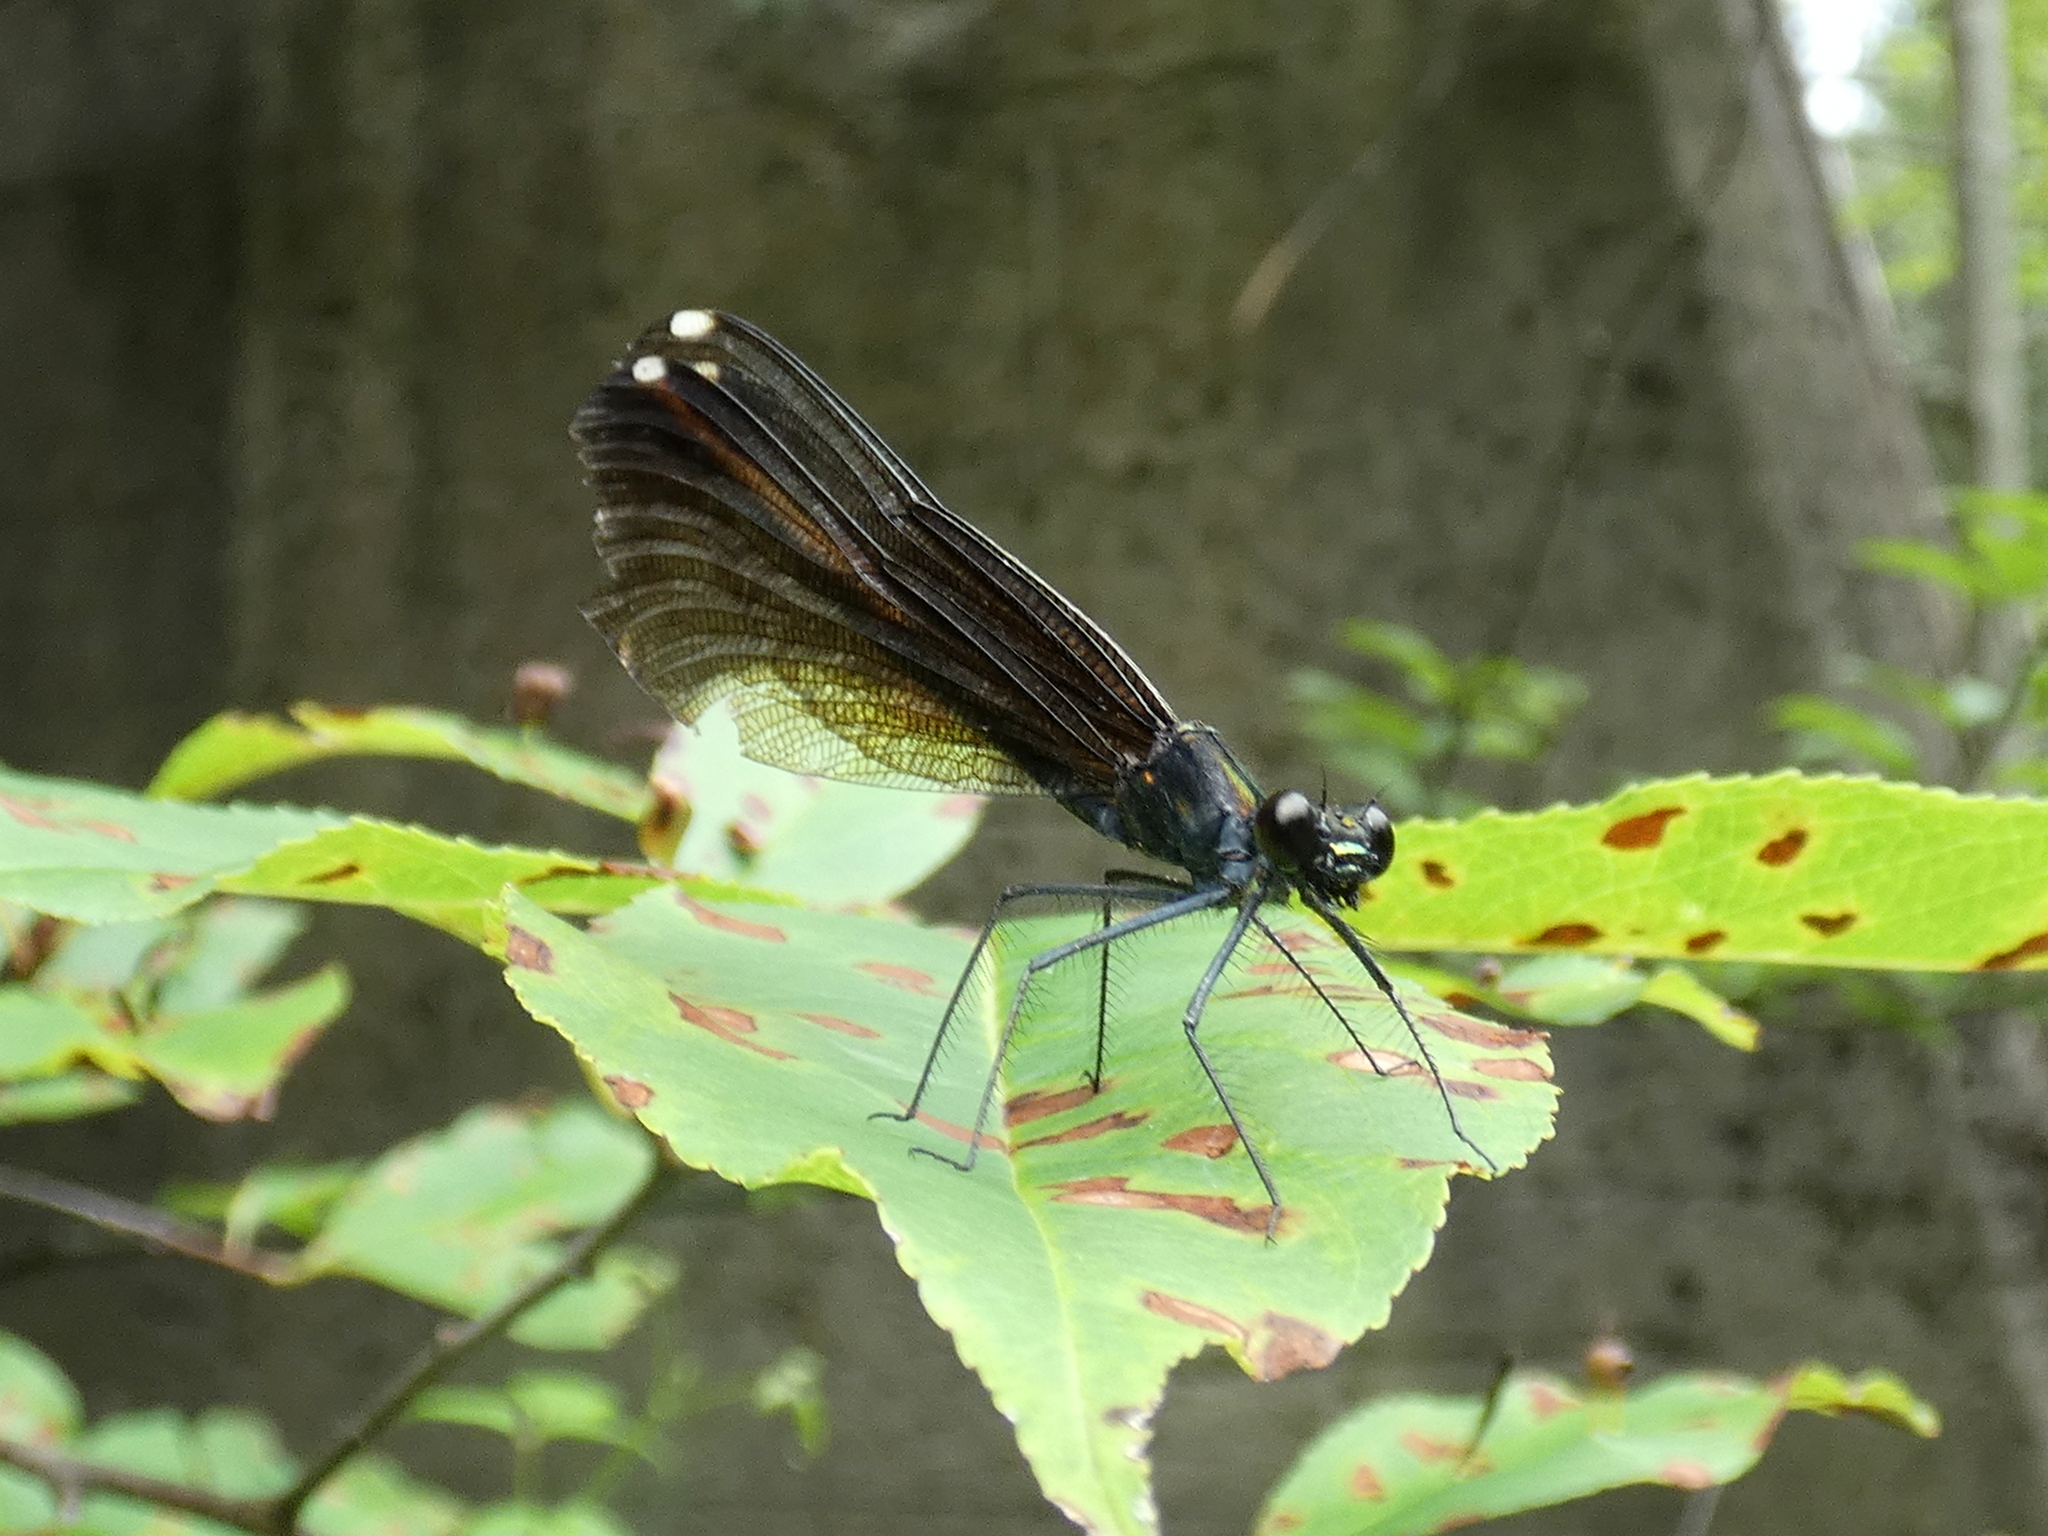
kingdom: Animalia
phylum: Arthropoda
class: Insecta
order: Odonata
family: Calopterygidae
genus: Calopteryx
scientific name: Calopteryx maculata
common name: Ebony jewelwing
